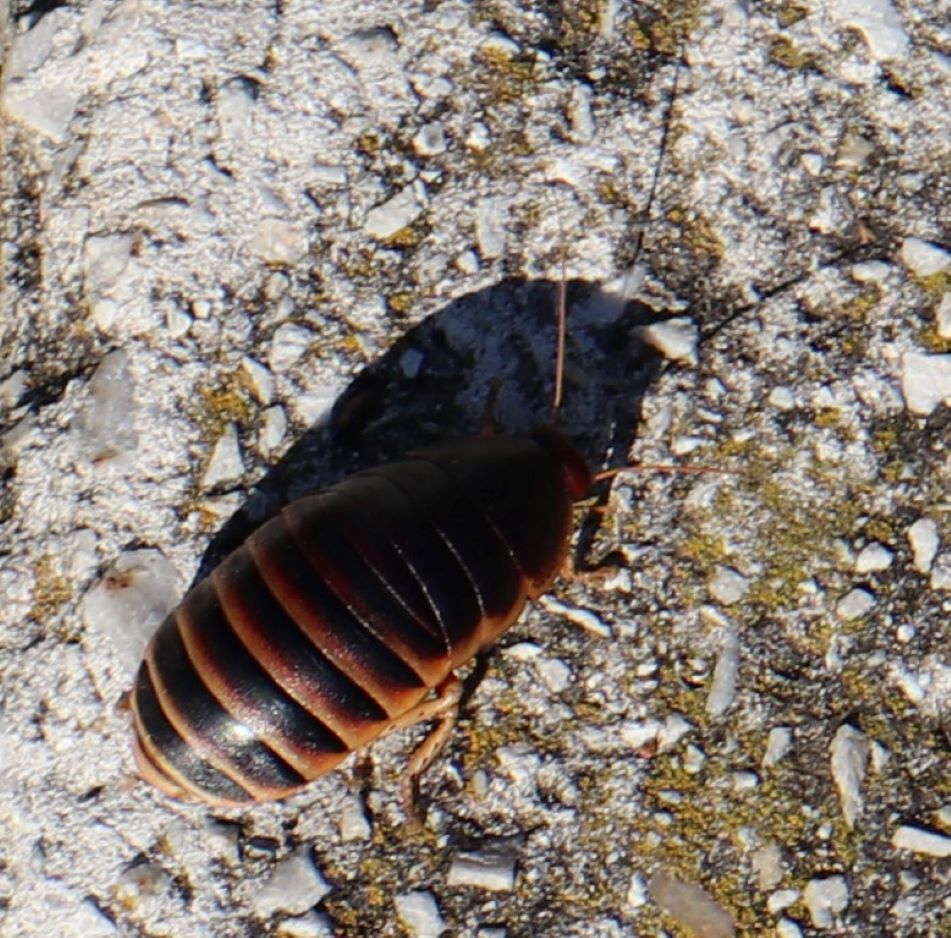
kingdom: Animalia
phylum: Arthropoda
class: Insecta
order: Blattodea
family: Blaberidae
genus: Aptera
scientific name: Aptera fusca
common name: Cape mountain cockroach
